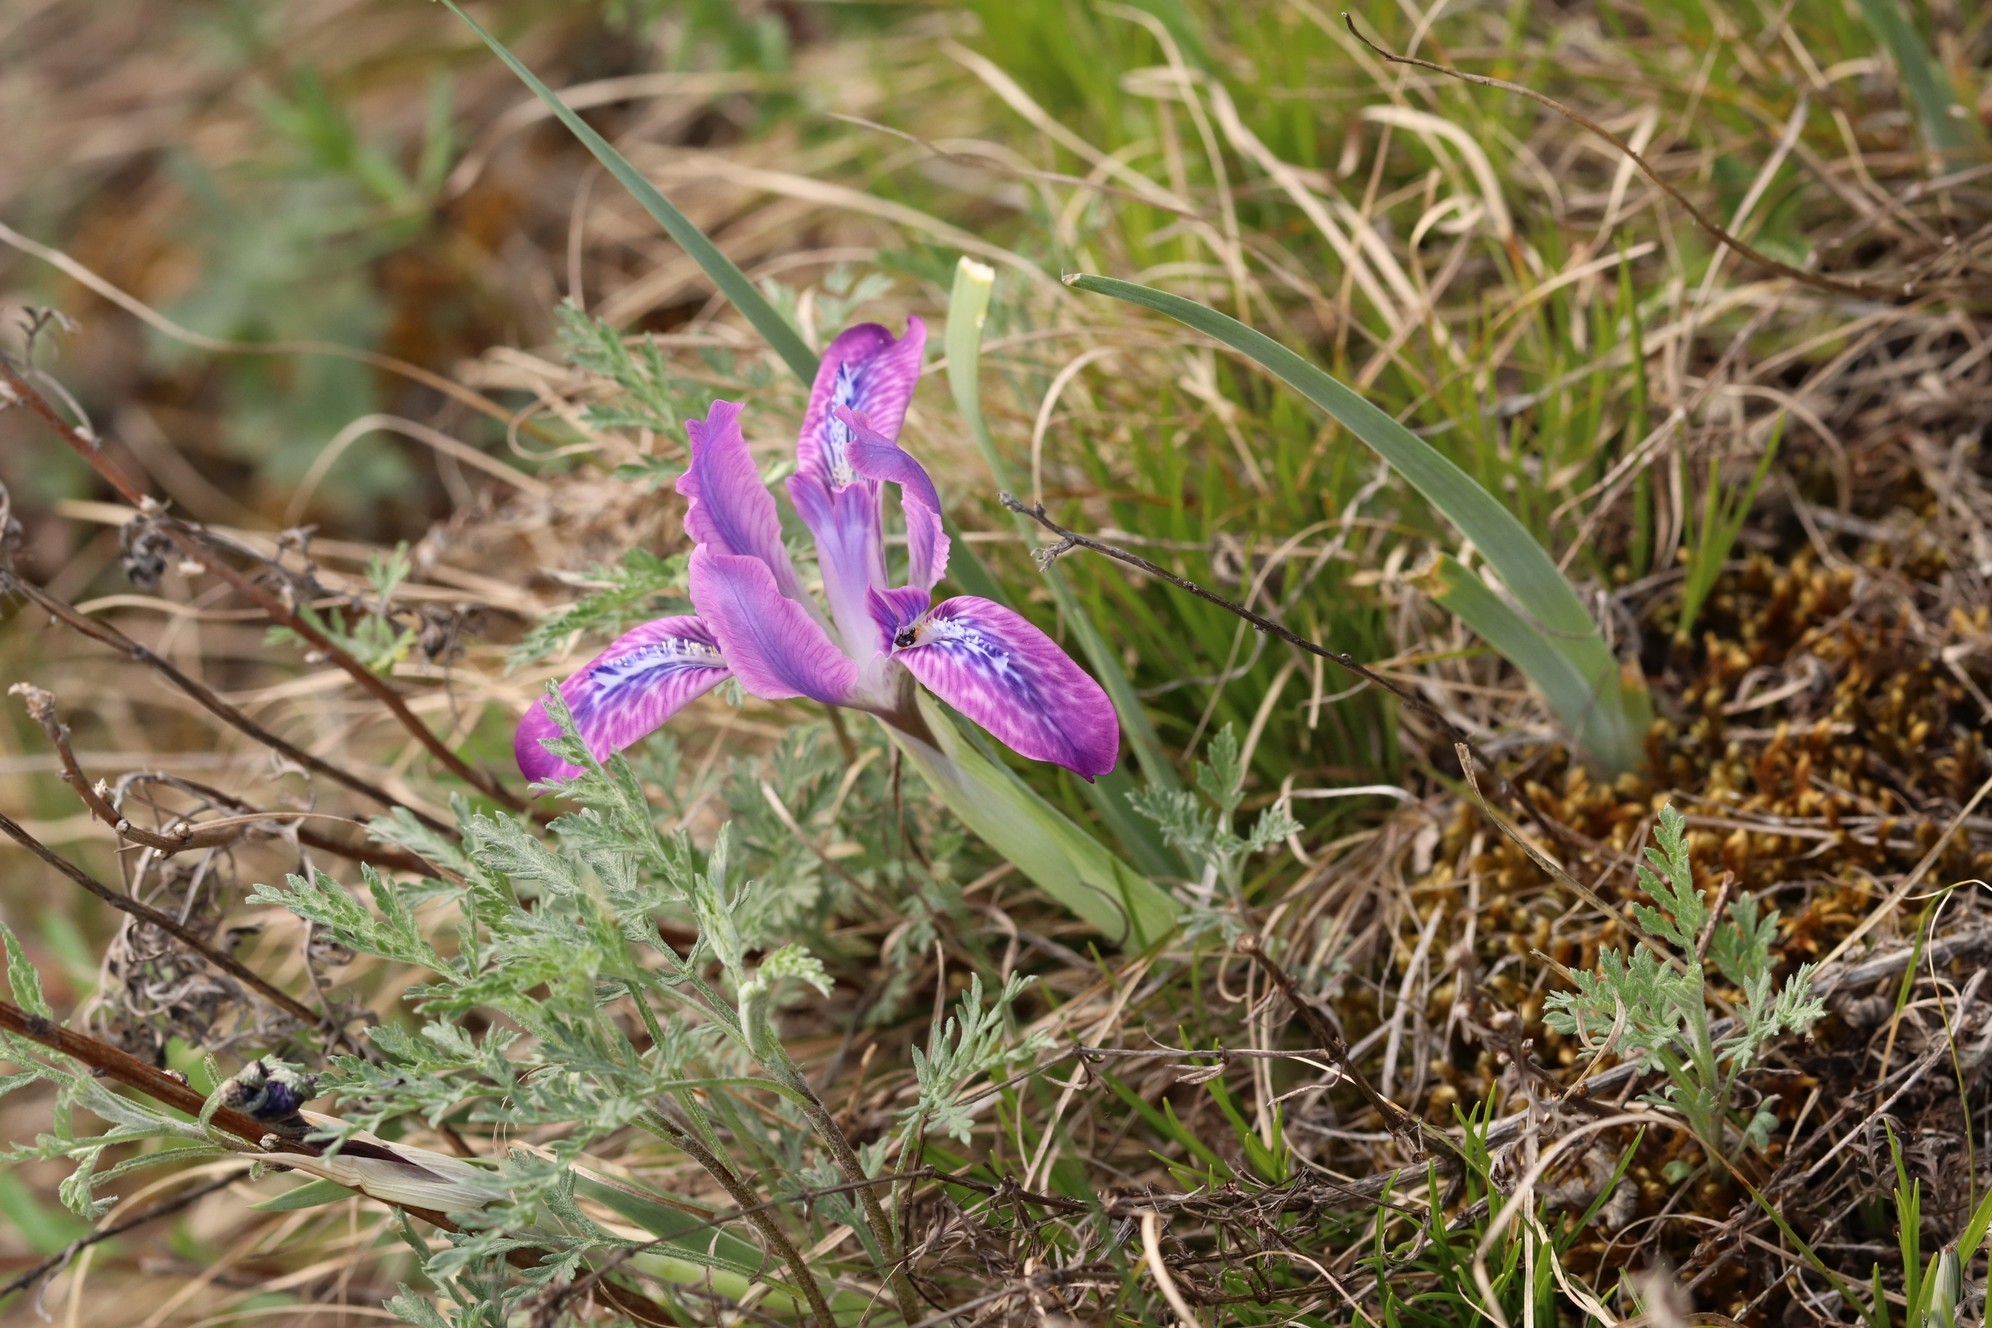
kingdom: Plantae
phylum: Tracheophyta
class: Liliopsida
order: Asparagales
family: Iridaceae
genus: Iris
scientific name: Iris tigridia
